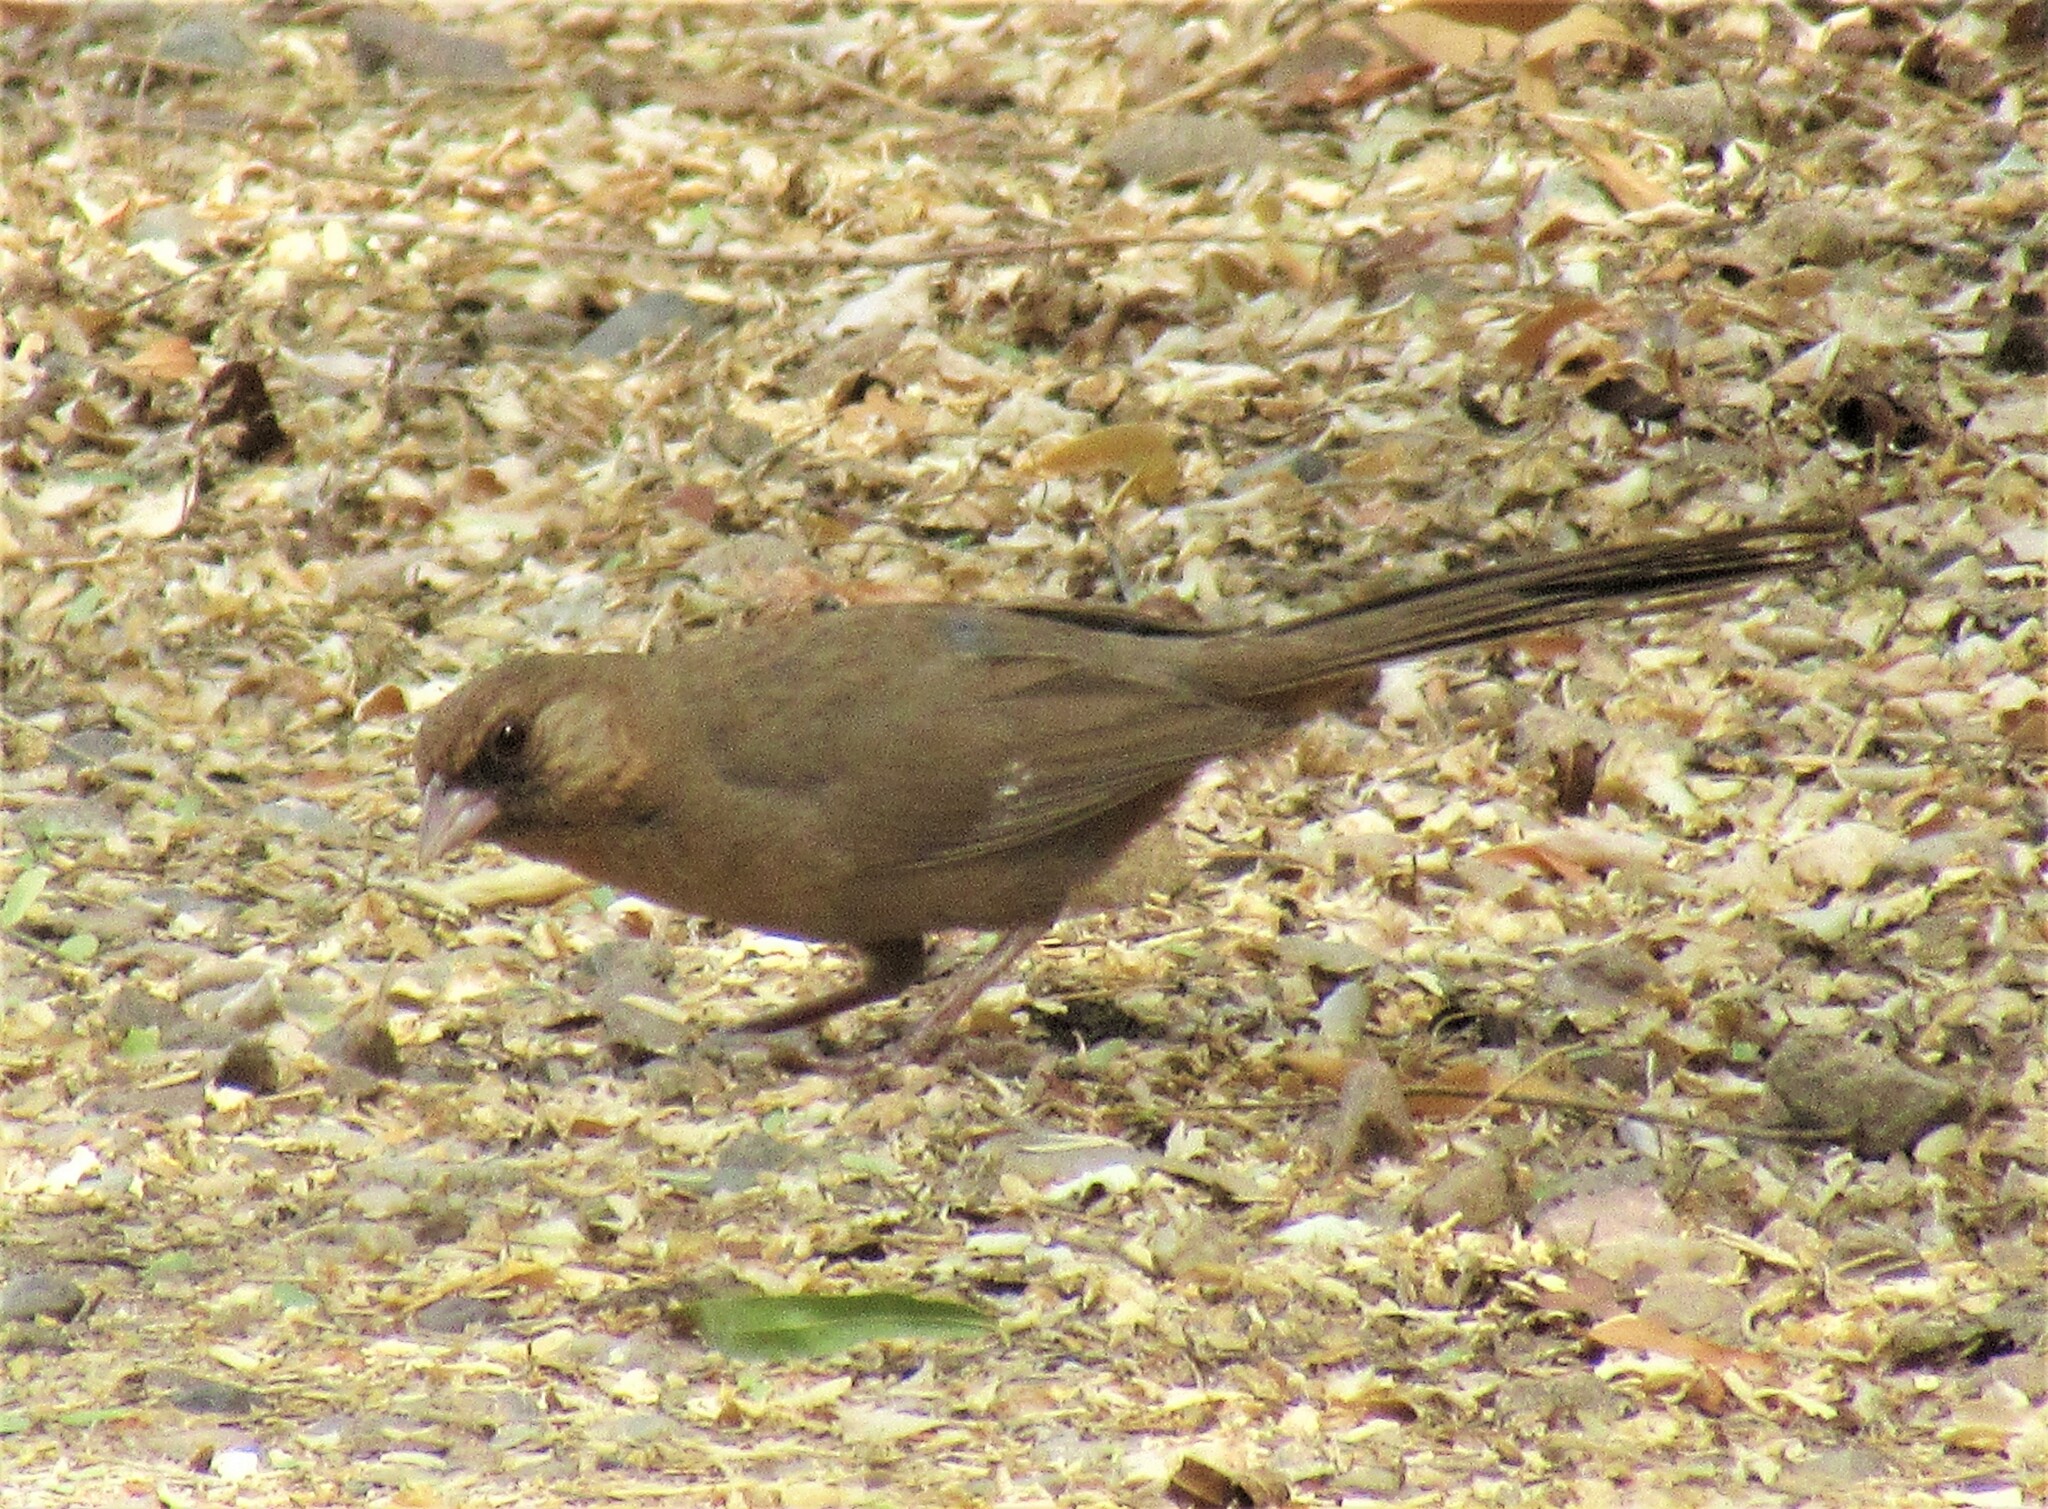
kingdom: Animalia
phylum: Chordata
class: Aves
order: Passeriformes
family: Passerellidae
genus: Melozone
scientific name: Melozone aberti
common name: Abert's towhee
